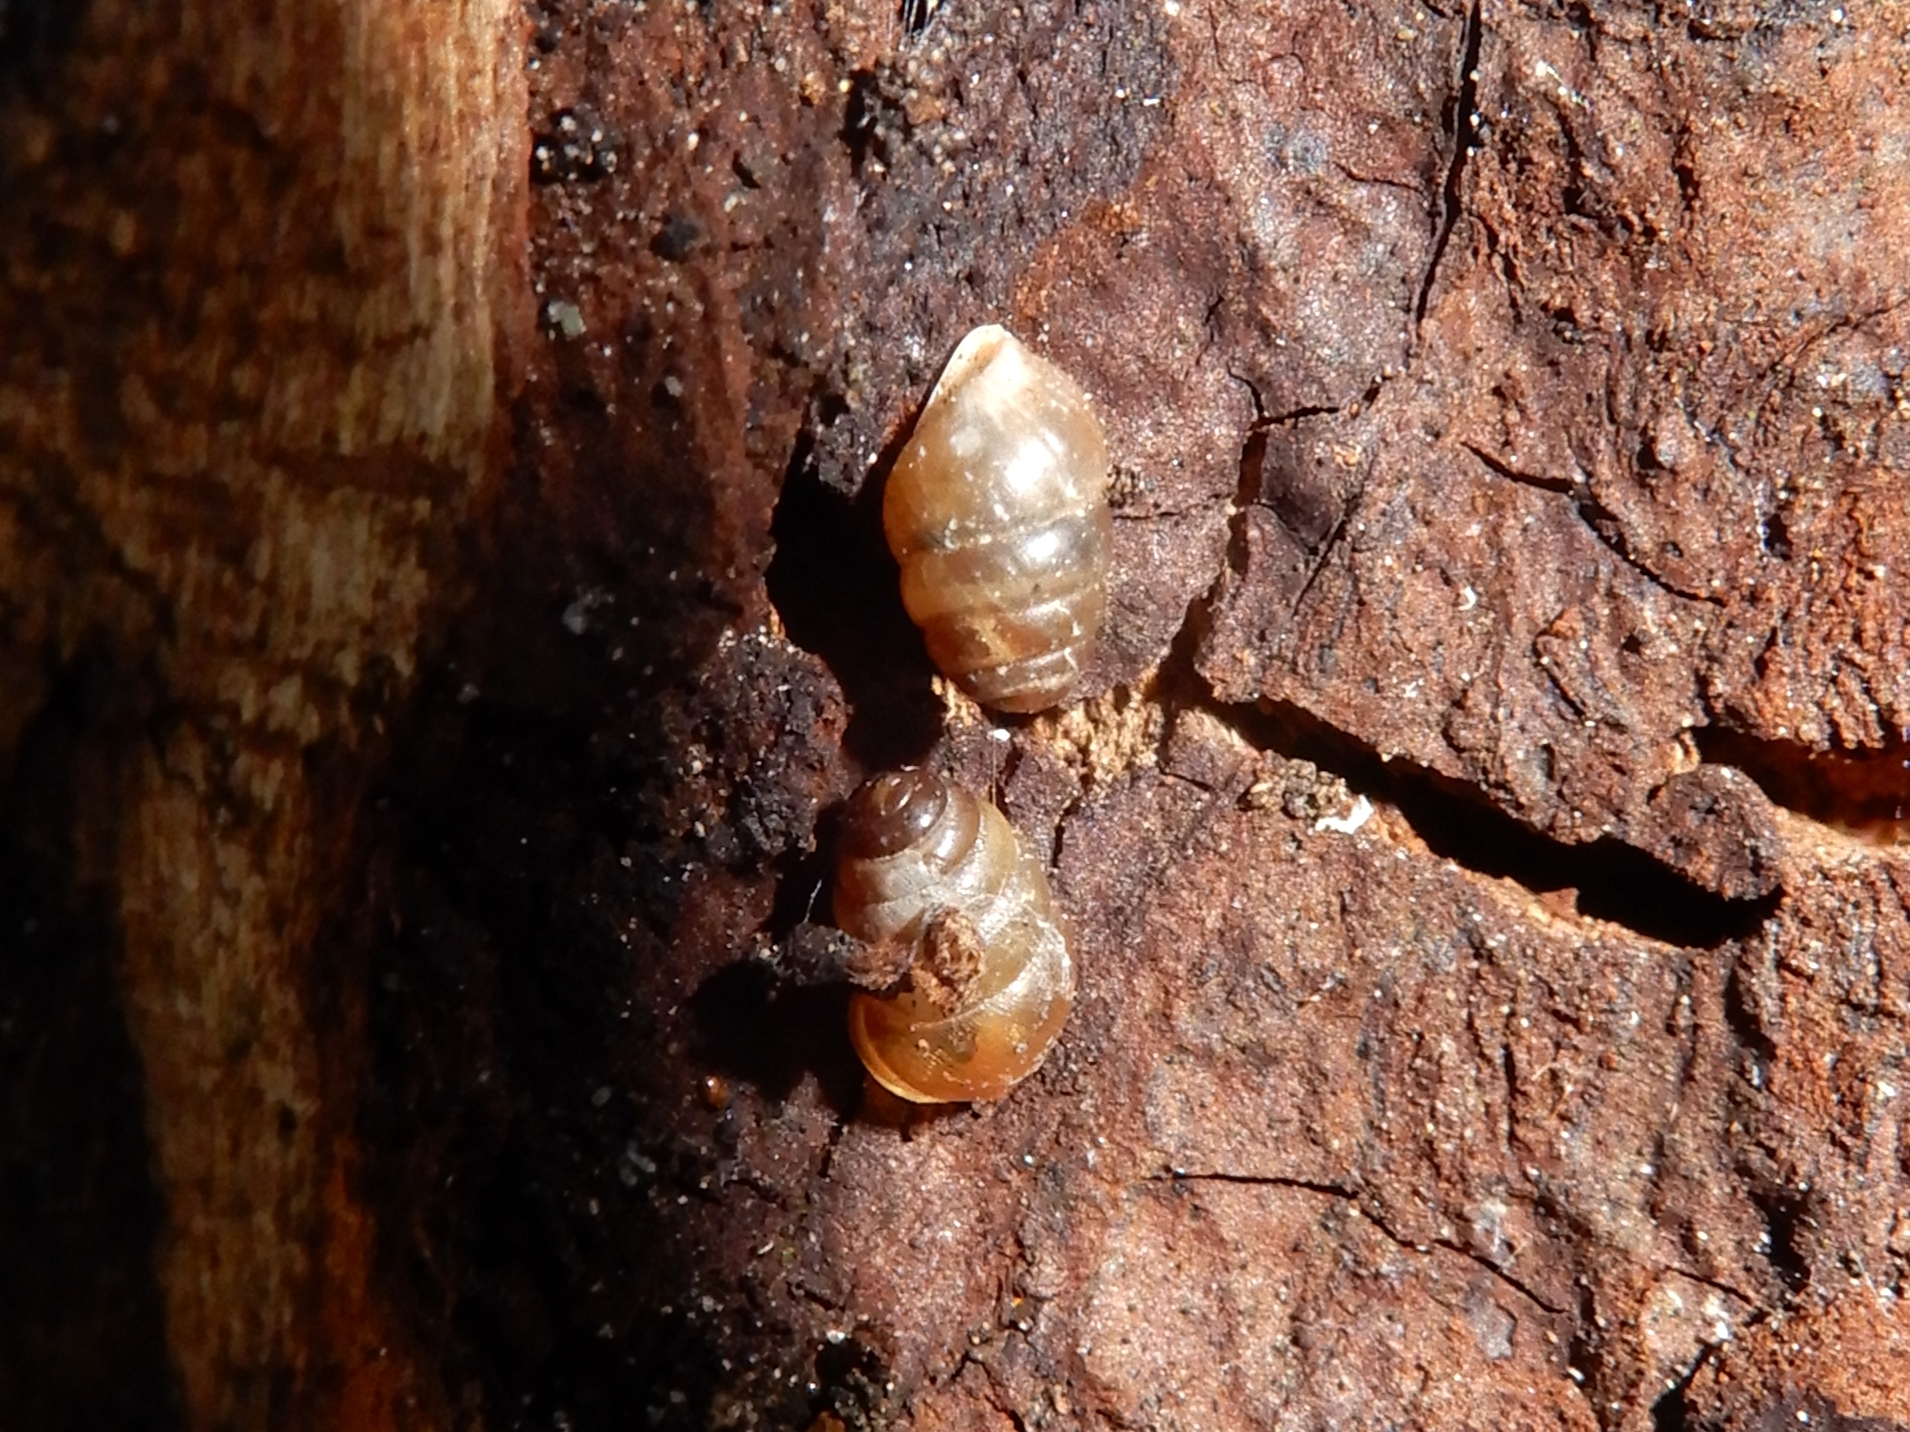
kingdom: Animalia
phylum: Mollusca
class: Gastropoda
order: Stylommatophora
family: Lauriidae
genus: Lauria
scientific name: Lauria cylindracea
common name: Common chrysalis snail
